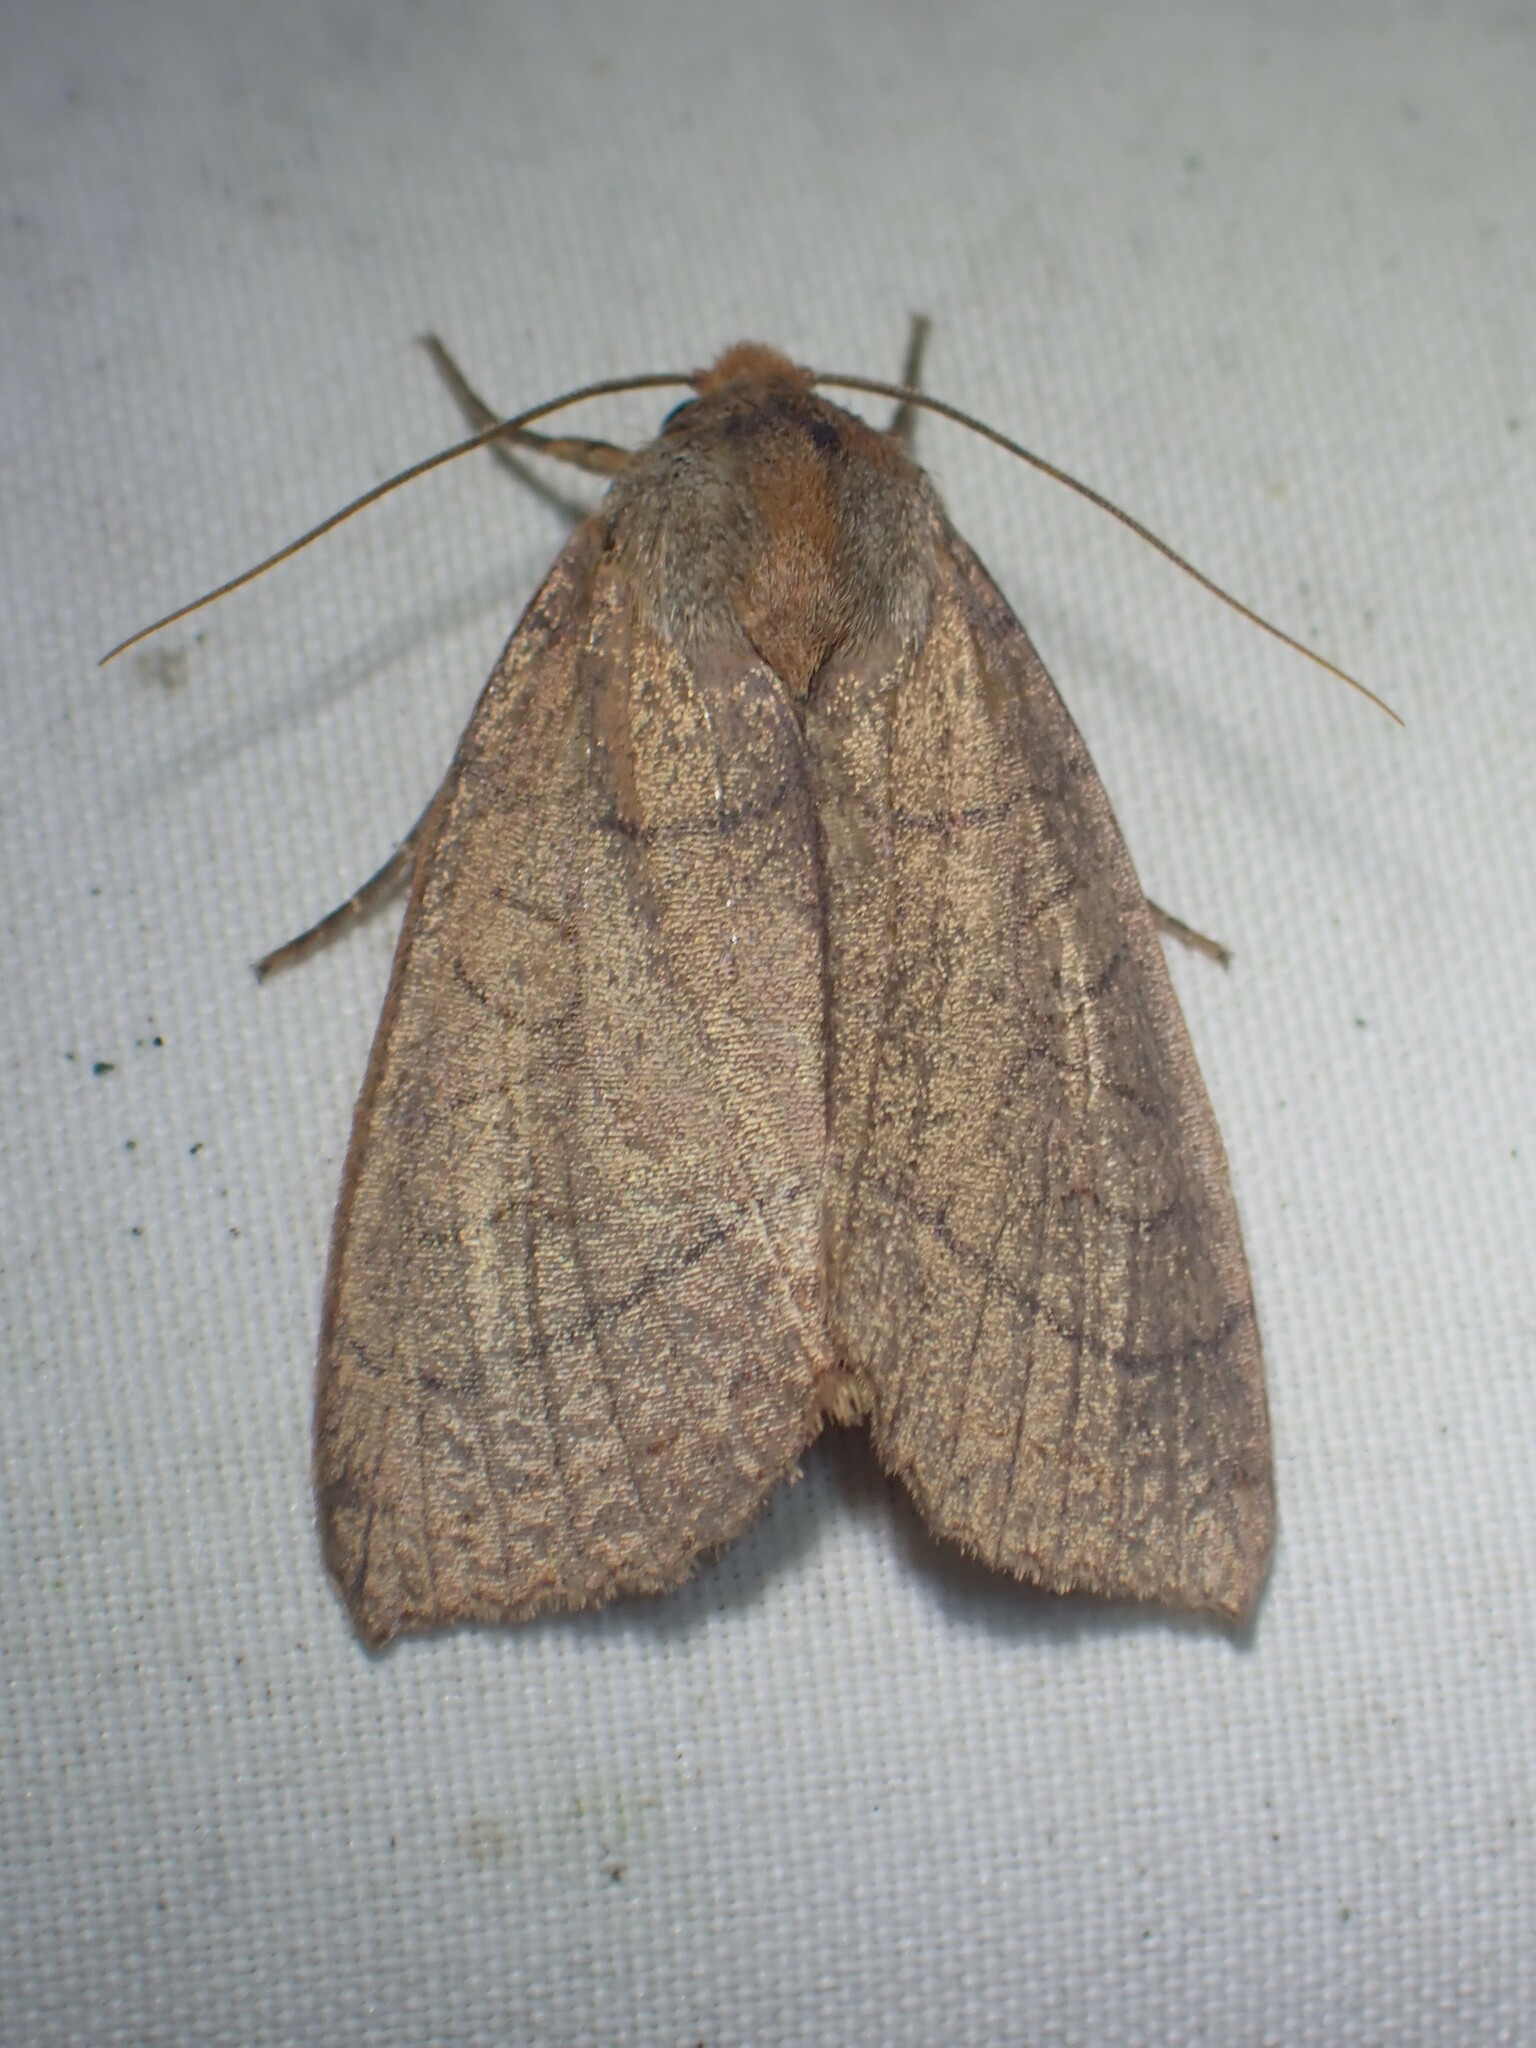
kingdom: Animalia
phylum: Arthropoda
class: Insecta
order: Lepidoptera
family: Noctuidae
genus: Metaxaglaea
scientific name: Metaxaglaea inulta
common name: Unsated sallow
